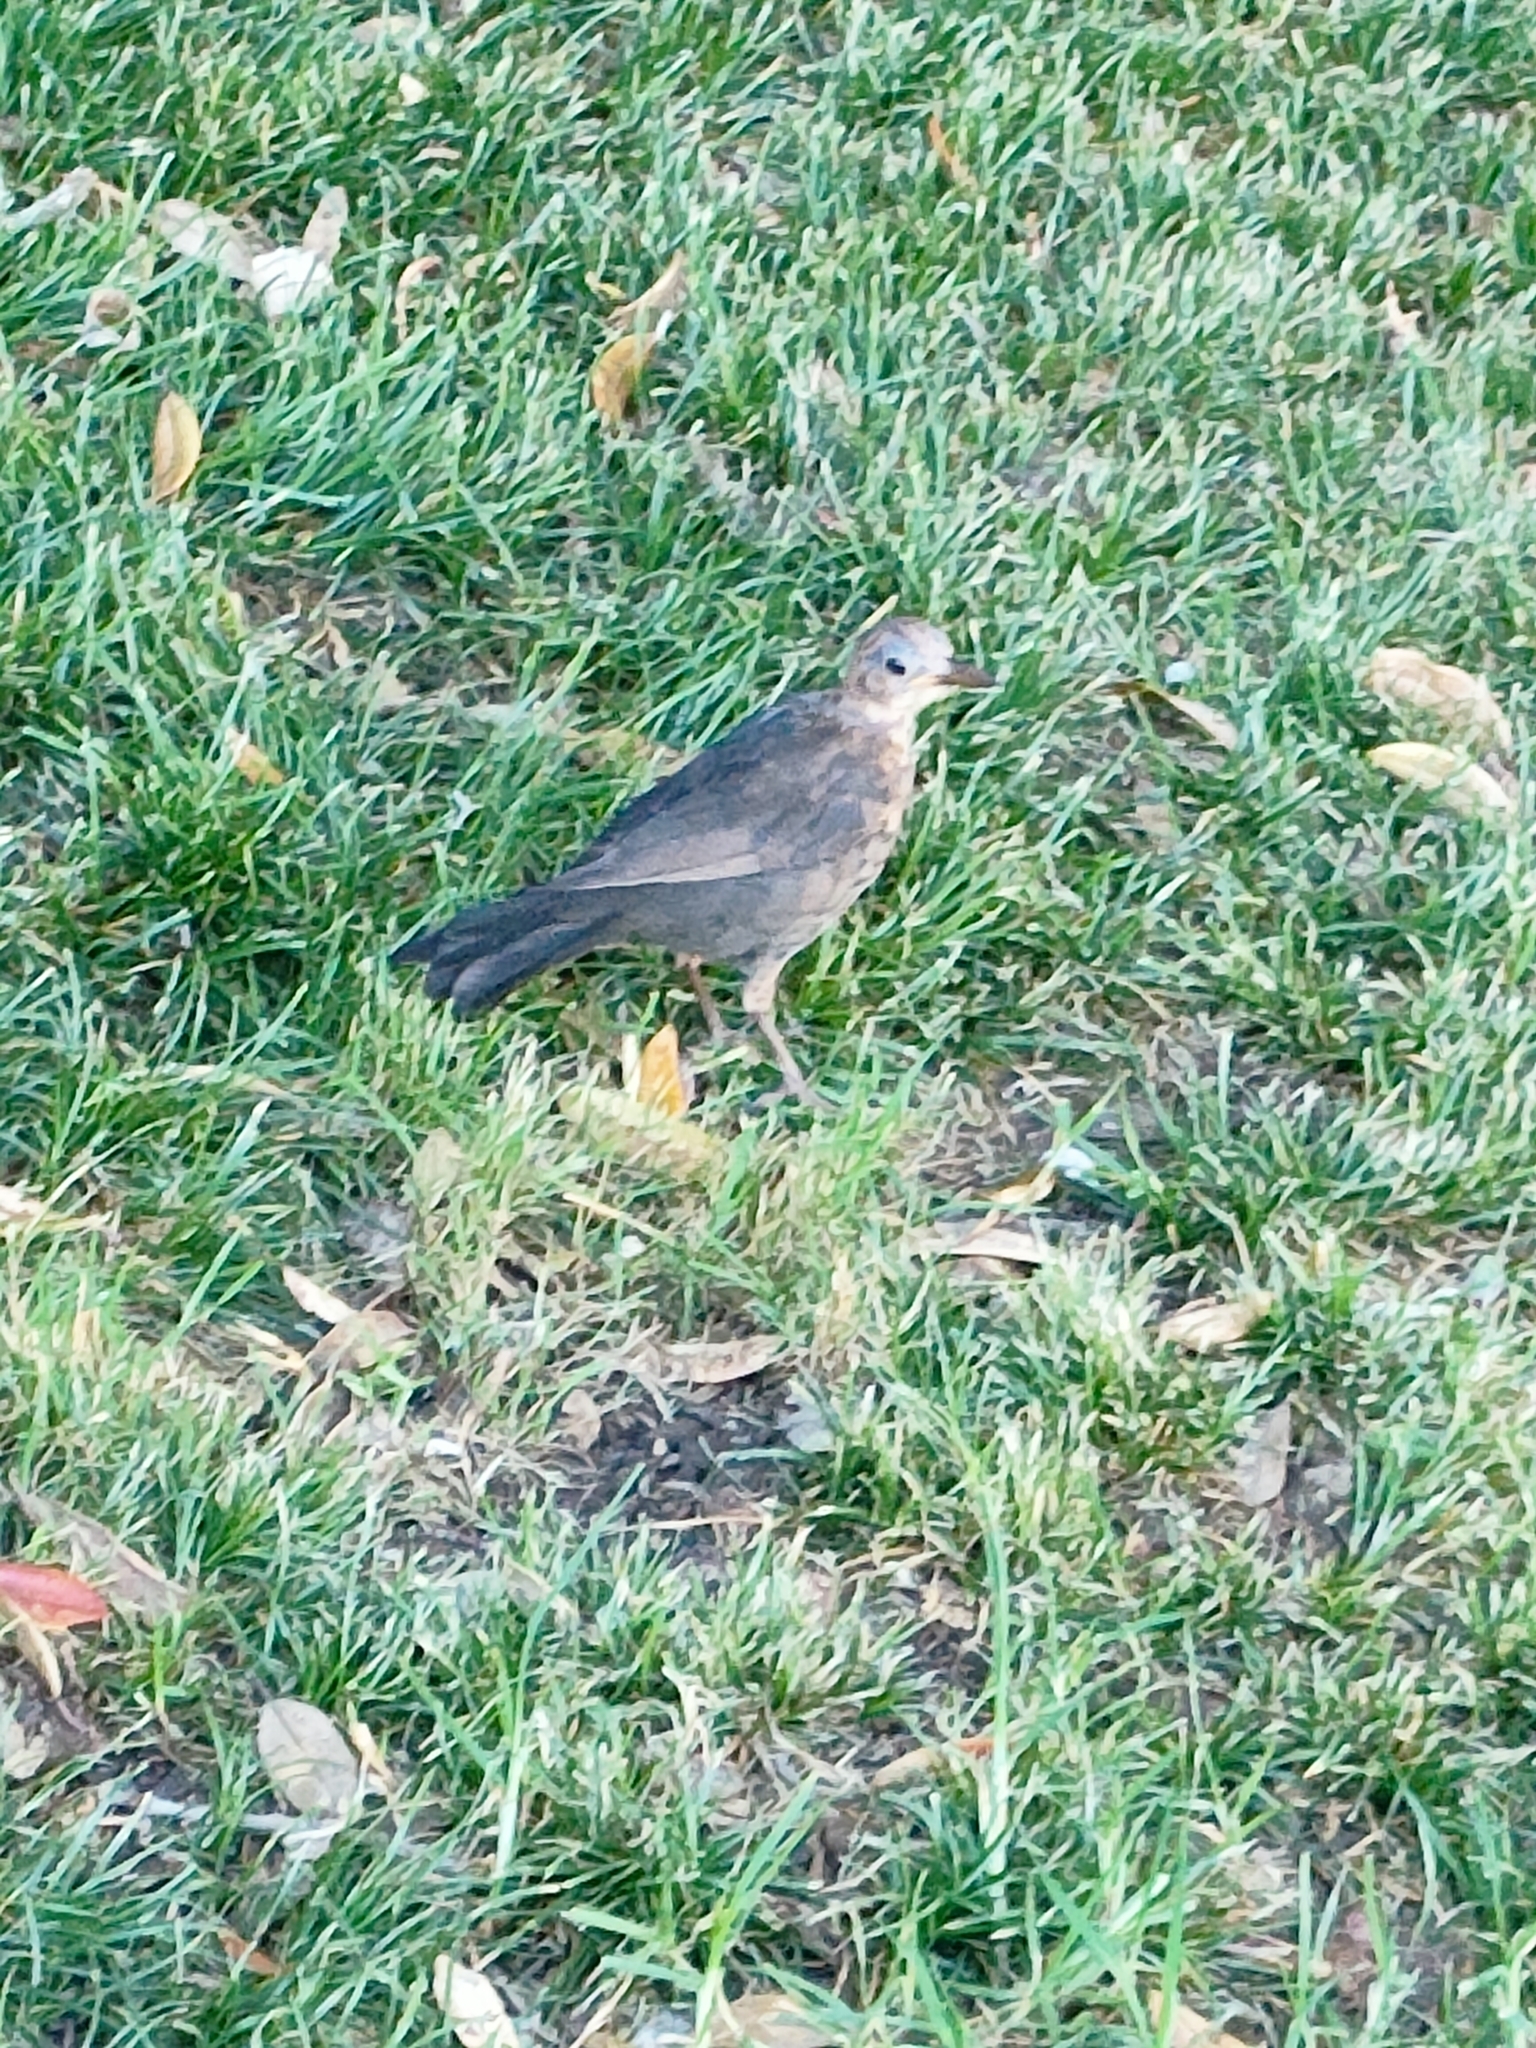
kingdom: Animalia
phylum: Chordata
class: Aves
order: Passeriformes
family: Turdidae
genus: Turdus
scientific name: Turdus merula
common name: Common blackbird
